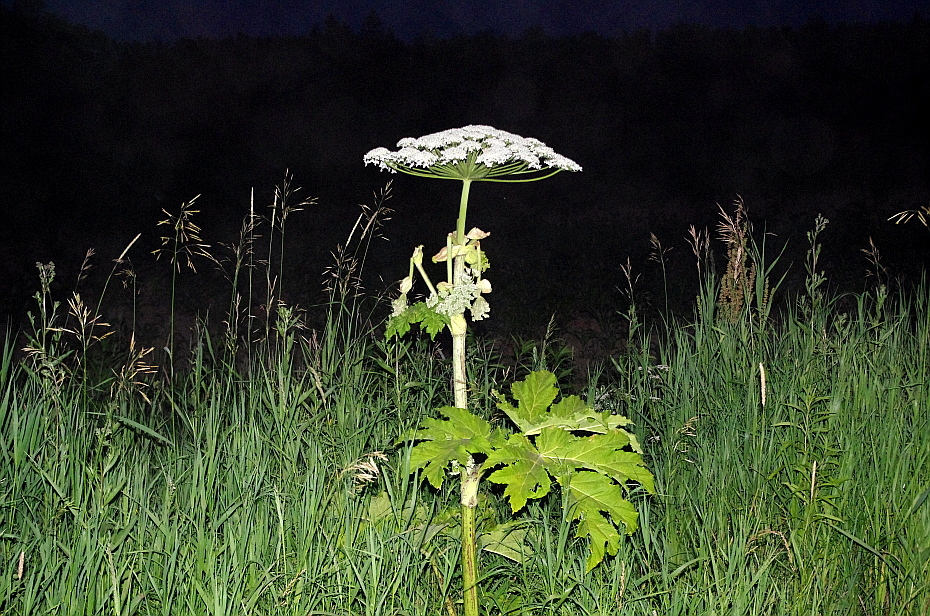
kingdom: Plantae
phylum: Tracheophyta
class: Magnoliopsida
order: Apiales
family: Apiaceae
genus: Heracleum
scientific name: Heracleum sosnowskyi
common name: Sosnowsky's hogweed
